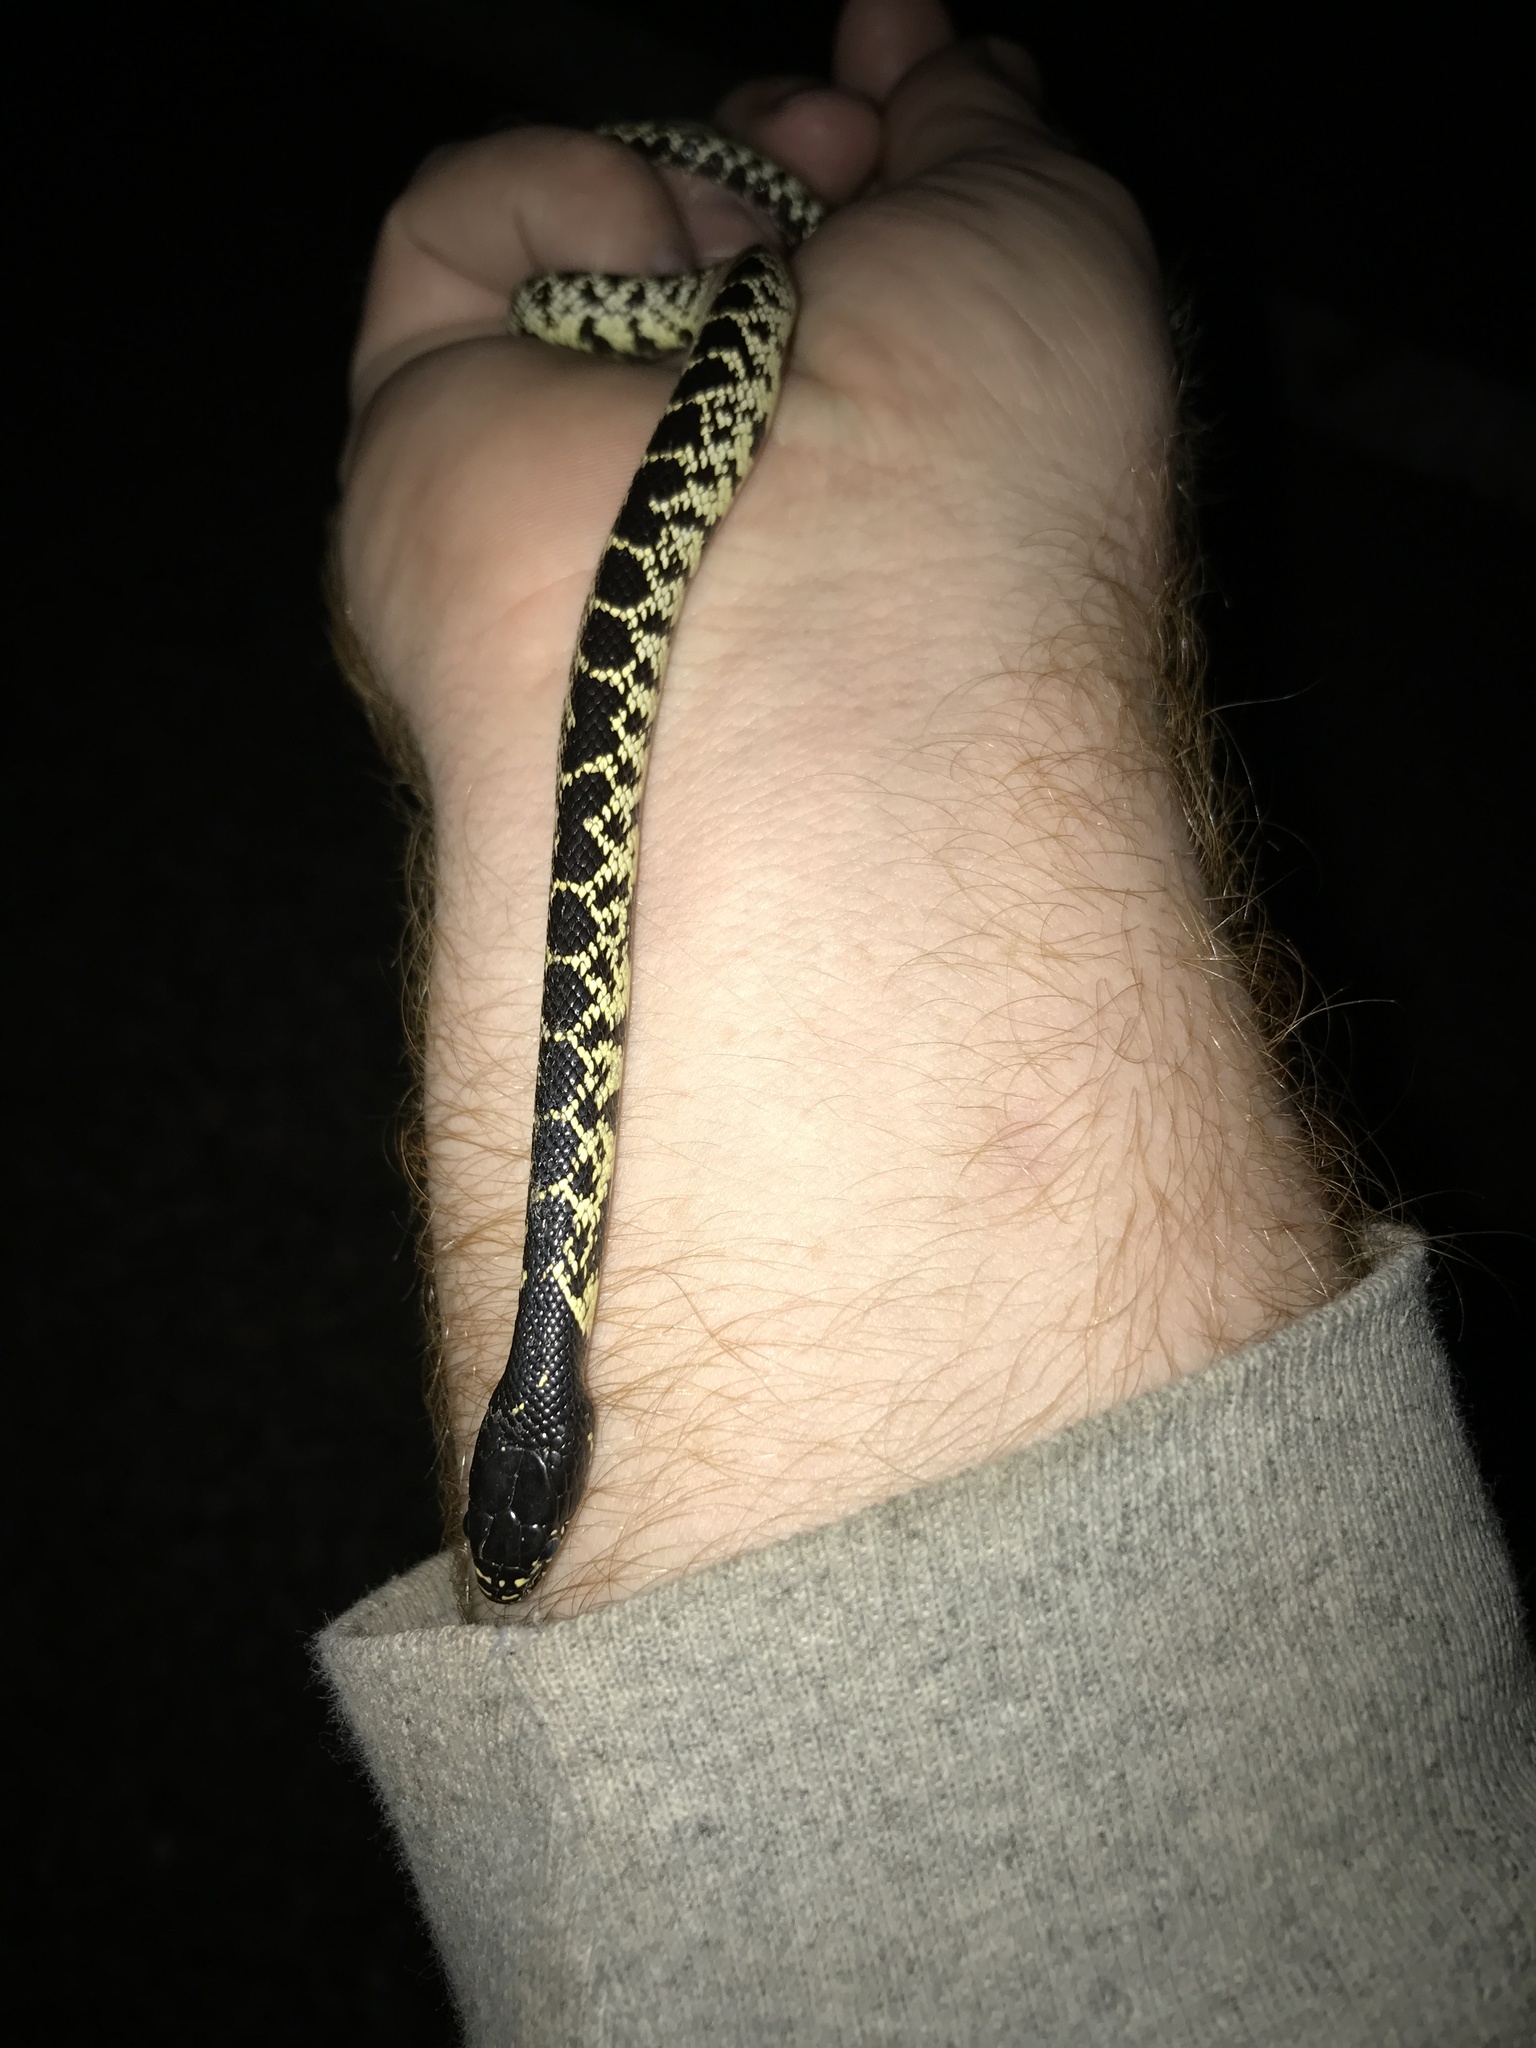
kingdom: Animalia
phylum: Chordata
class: Squamata
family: Colubridae
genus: Lampropeltis
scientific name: Lampropeltis splendida
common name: Desert kingsnake
